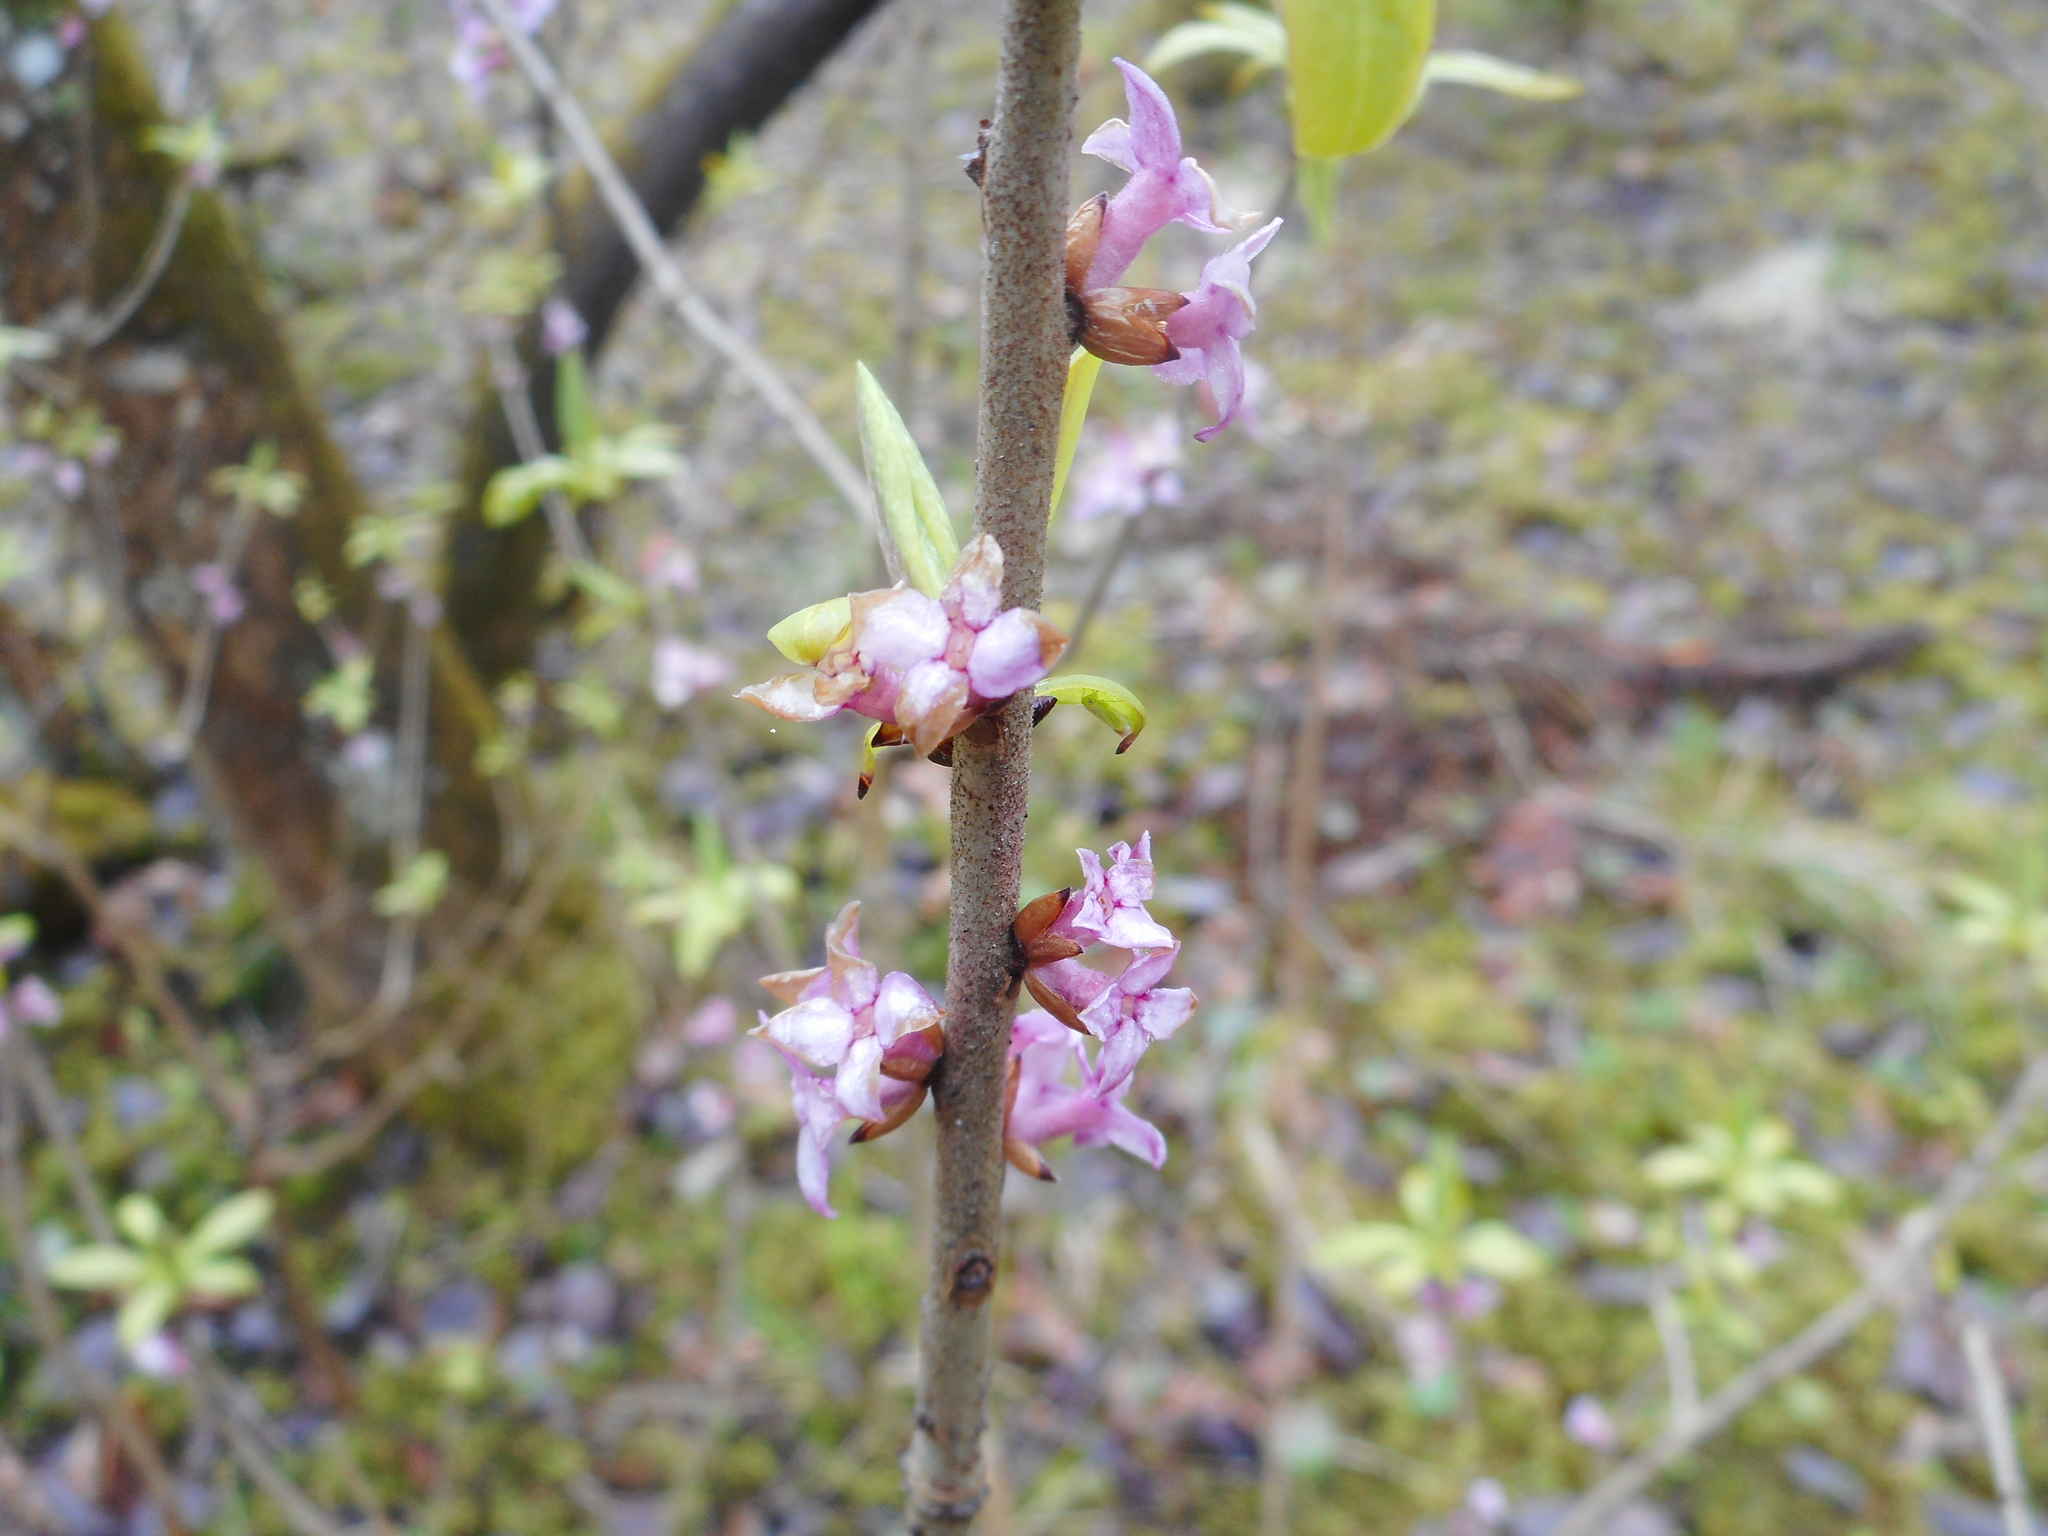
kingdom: Plantae
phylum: Tracheophyta
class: Magnoliopsida
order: Malvales
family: Thymelaeaceae
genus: Daphne
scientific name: Daphne mezereum
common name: Mezereon
